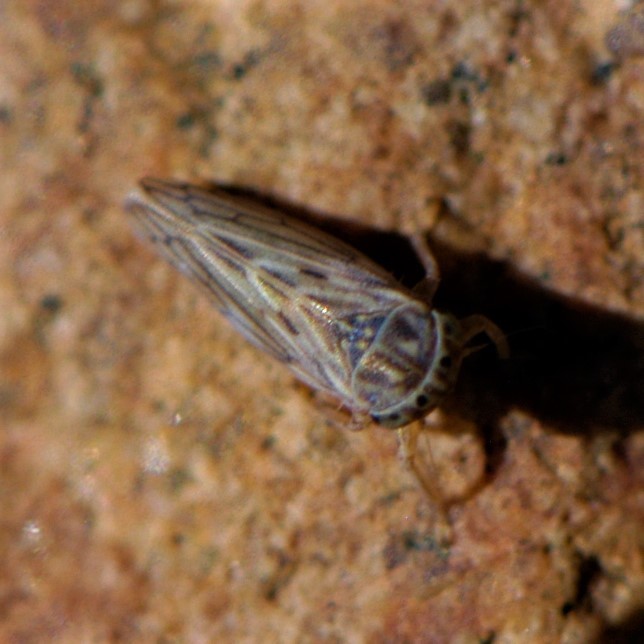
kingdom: Animalia
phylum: Arthropoda
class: Insecta
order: Hemiptera
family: Cicadellidae
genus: Ceratagallia
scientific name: Ceratagallia
